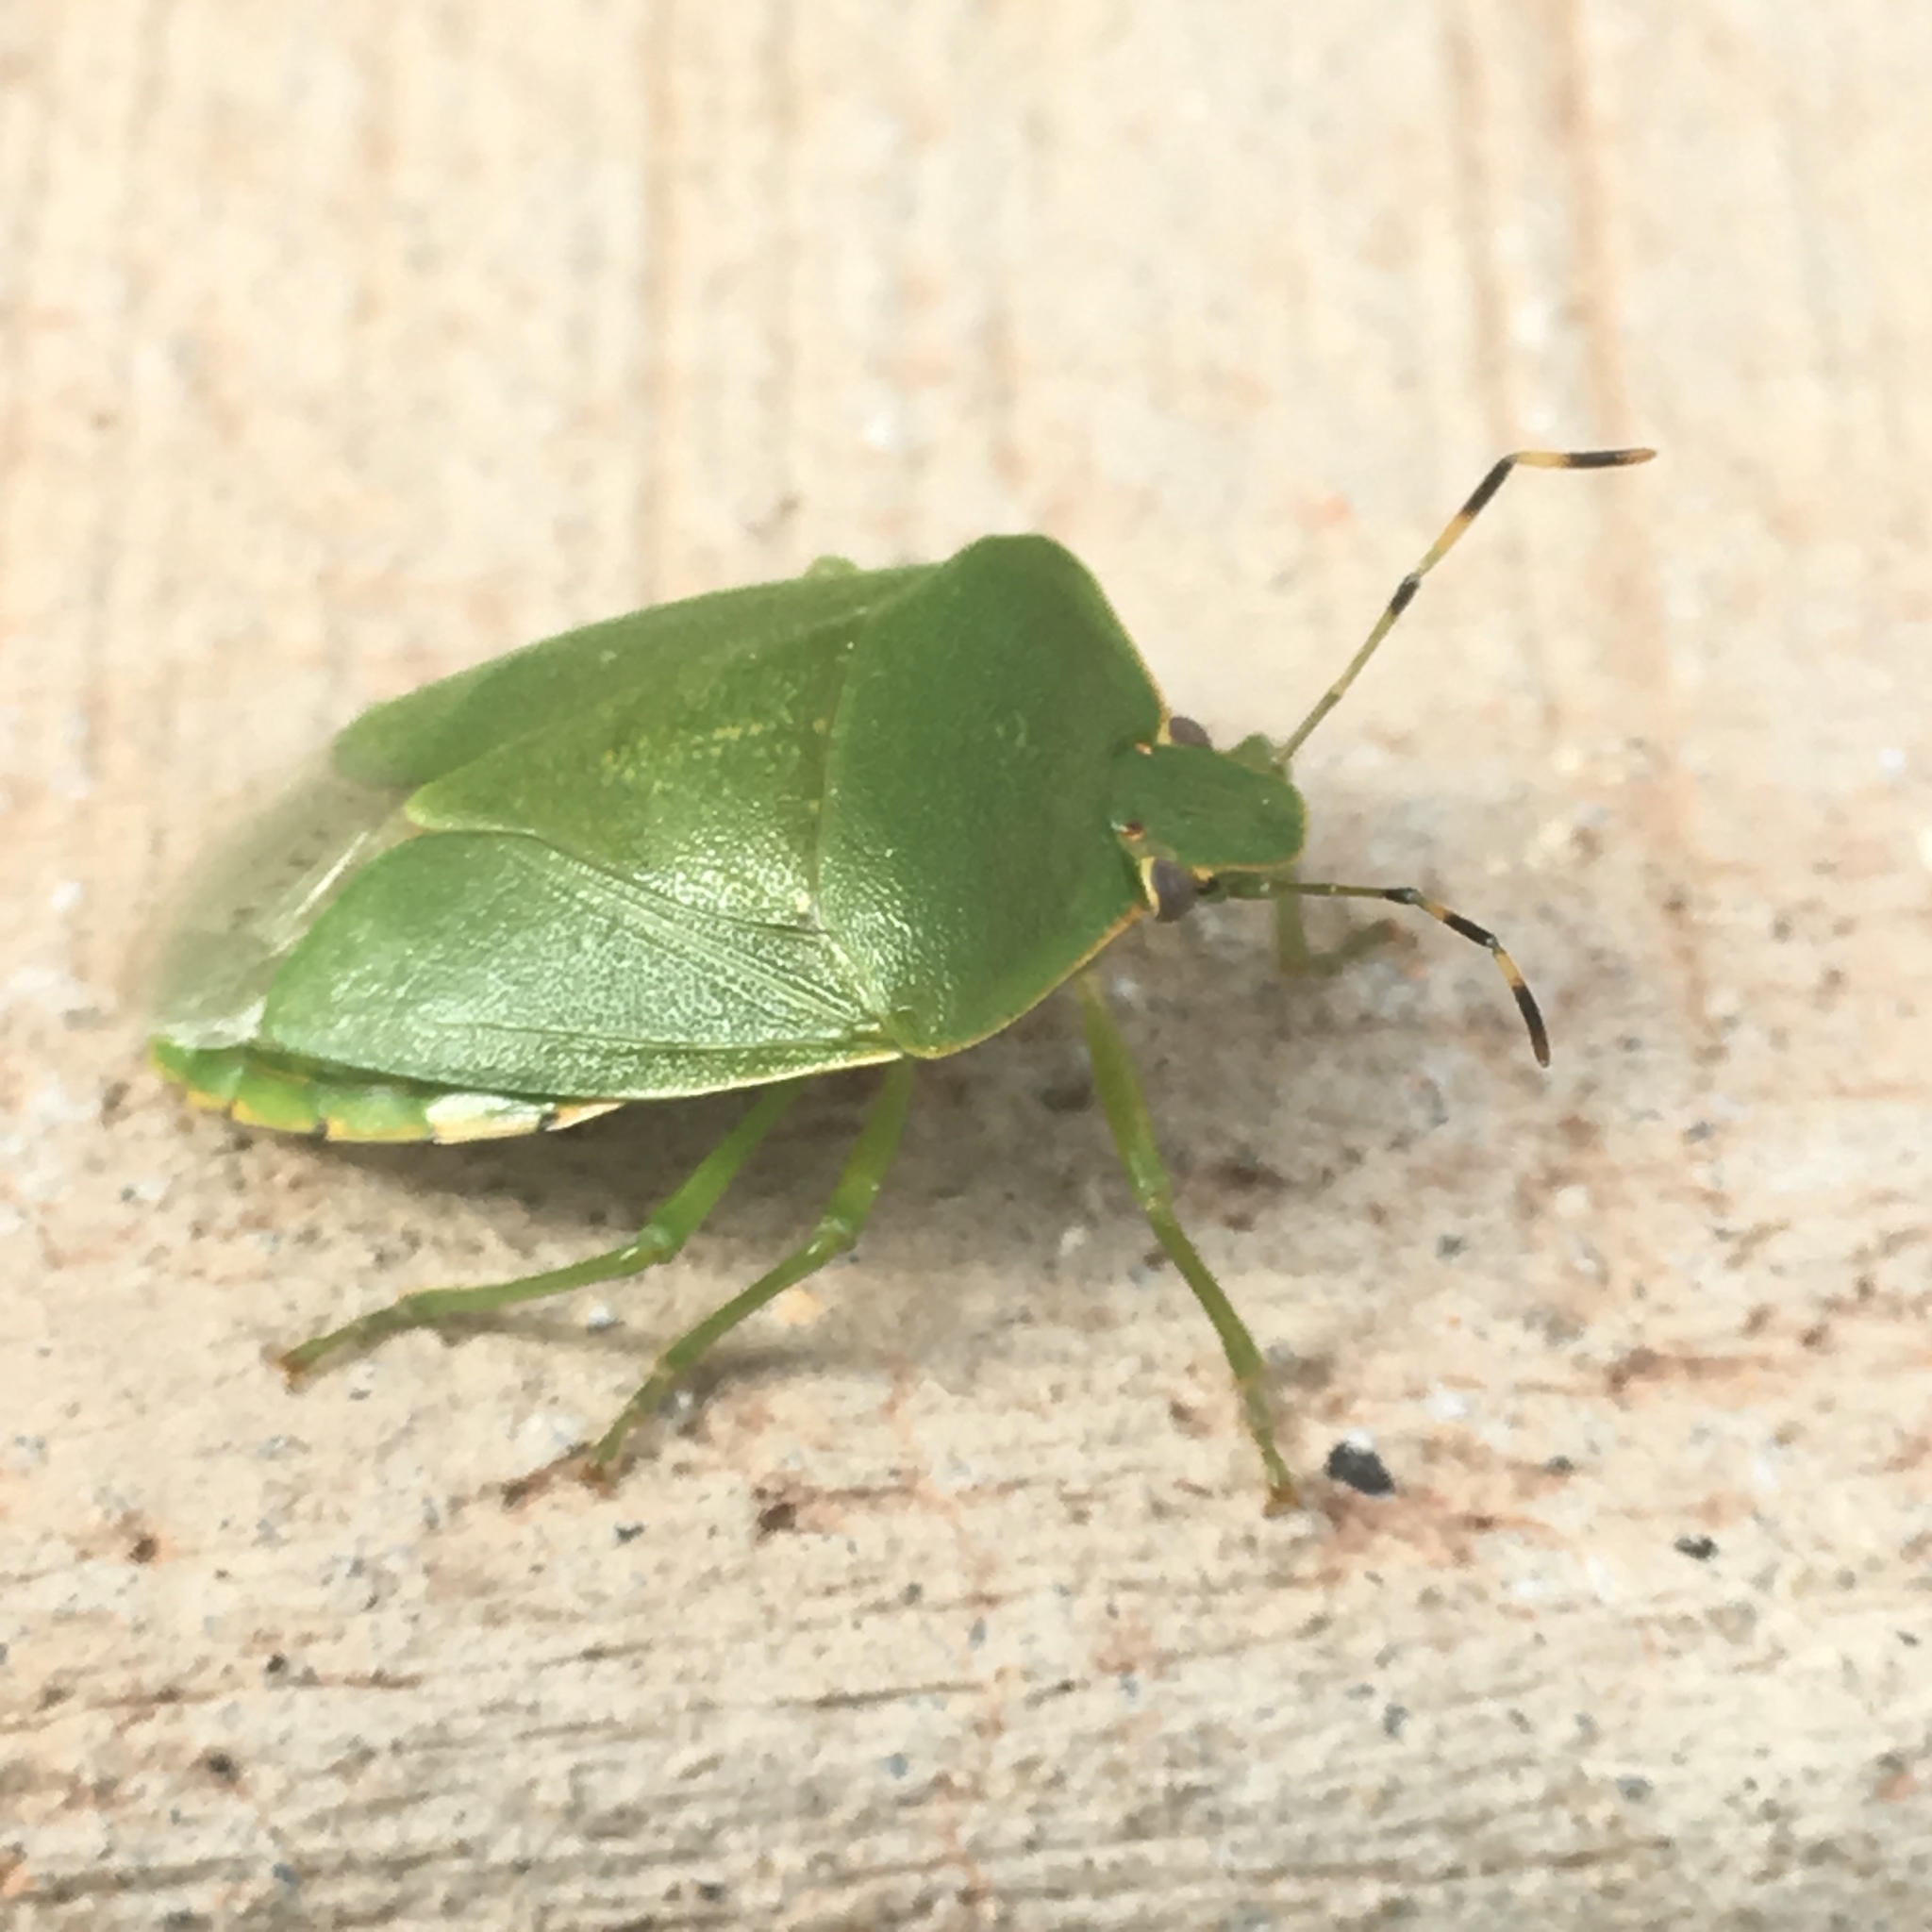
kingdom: Animalia
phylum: Arthropoda
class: Insecta
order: Hemiptera
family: Pentatomidae
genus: Chinavia
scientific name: Chinavia hilaris
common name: Green stink bug
